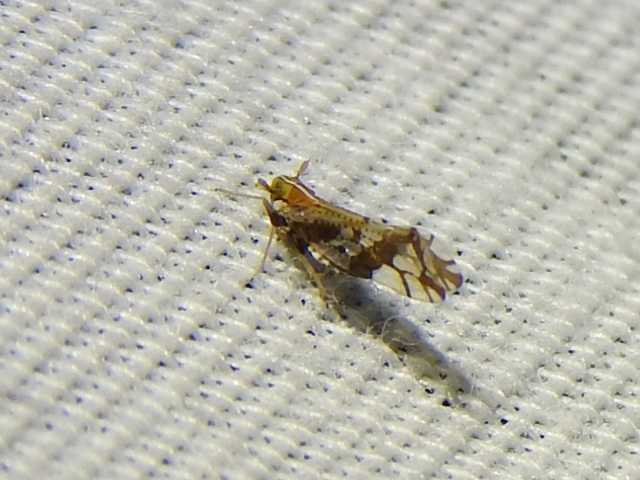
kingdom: Animalia
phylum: Arthropoda
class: Insecta
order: Hemiptera
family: Delphacidae
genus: Liburniella
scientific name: Liburniella ornata
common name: Ornate planthopper
